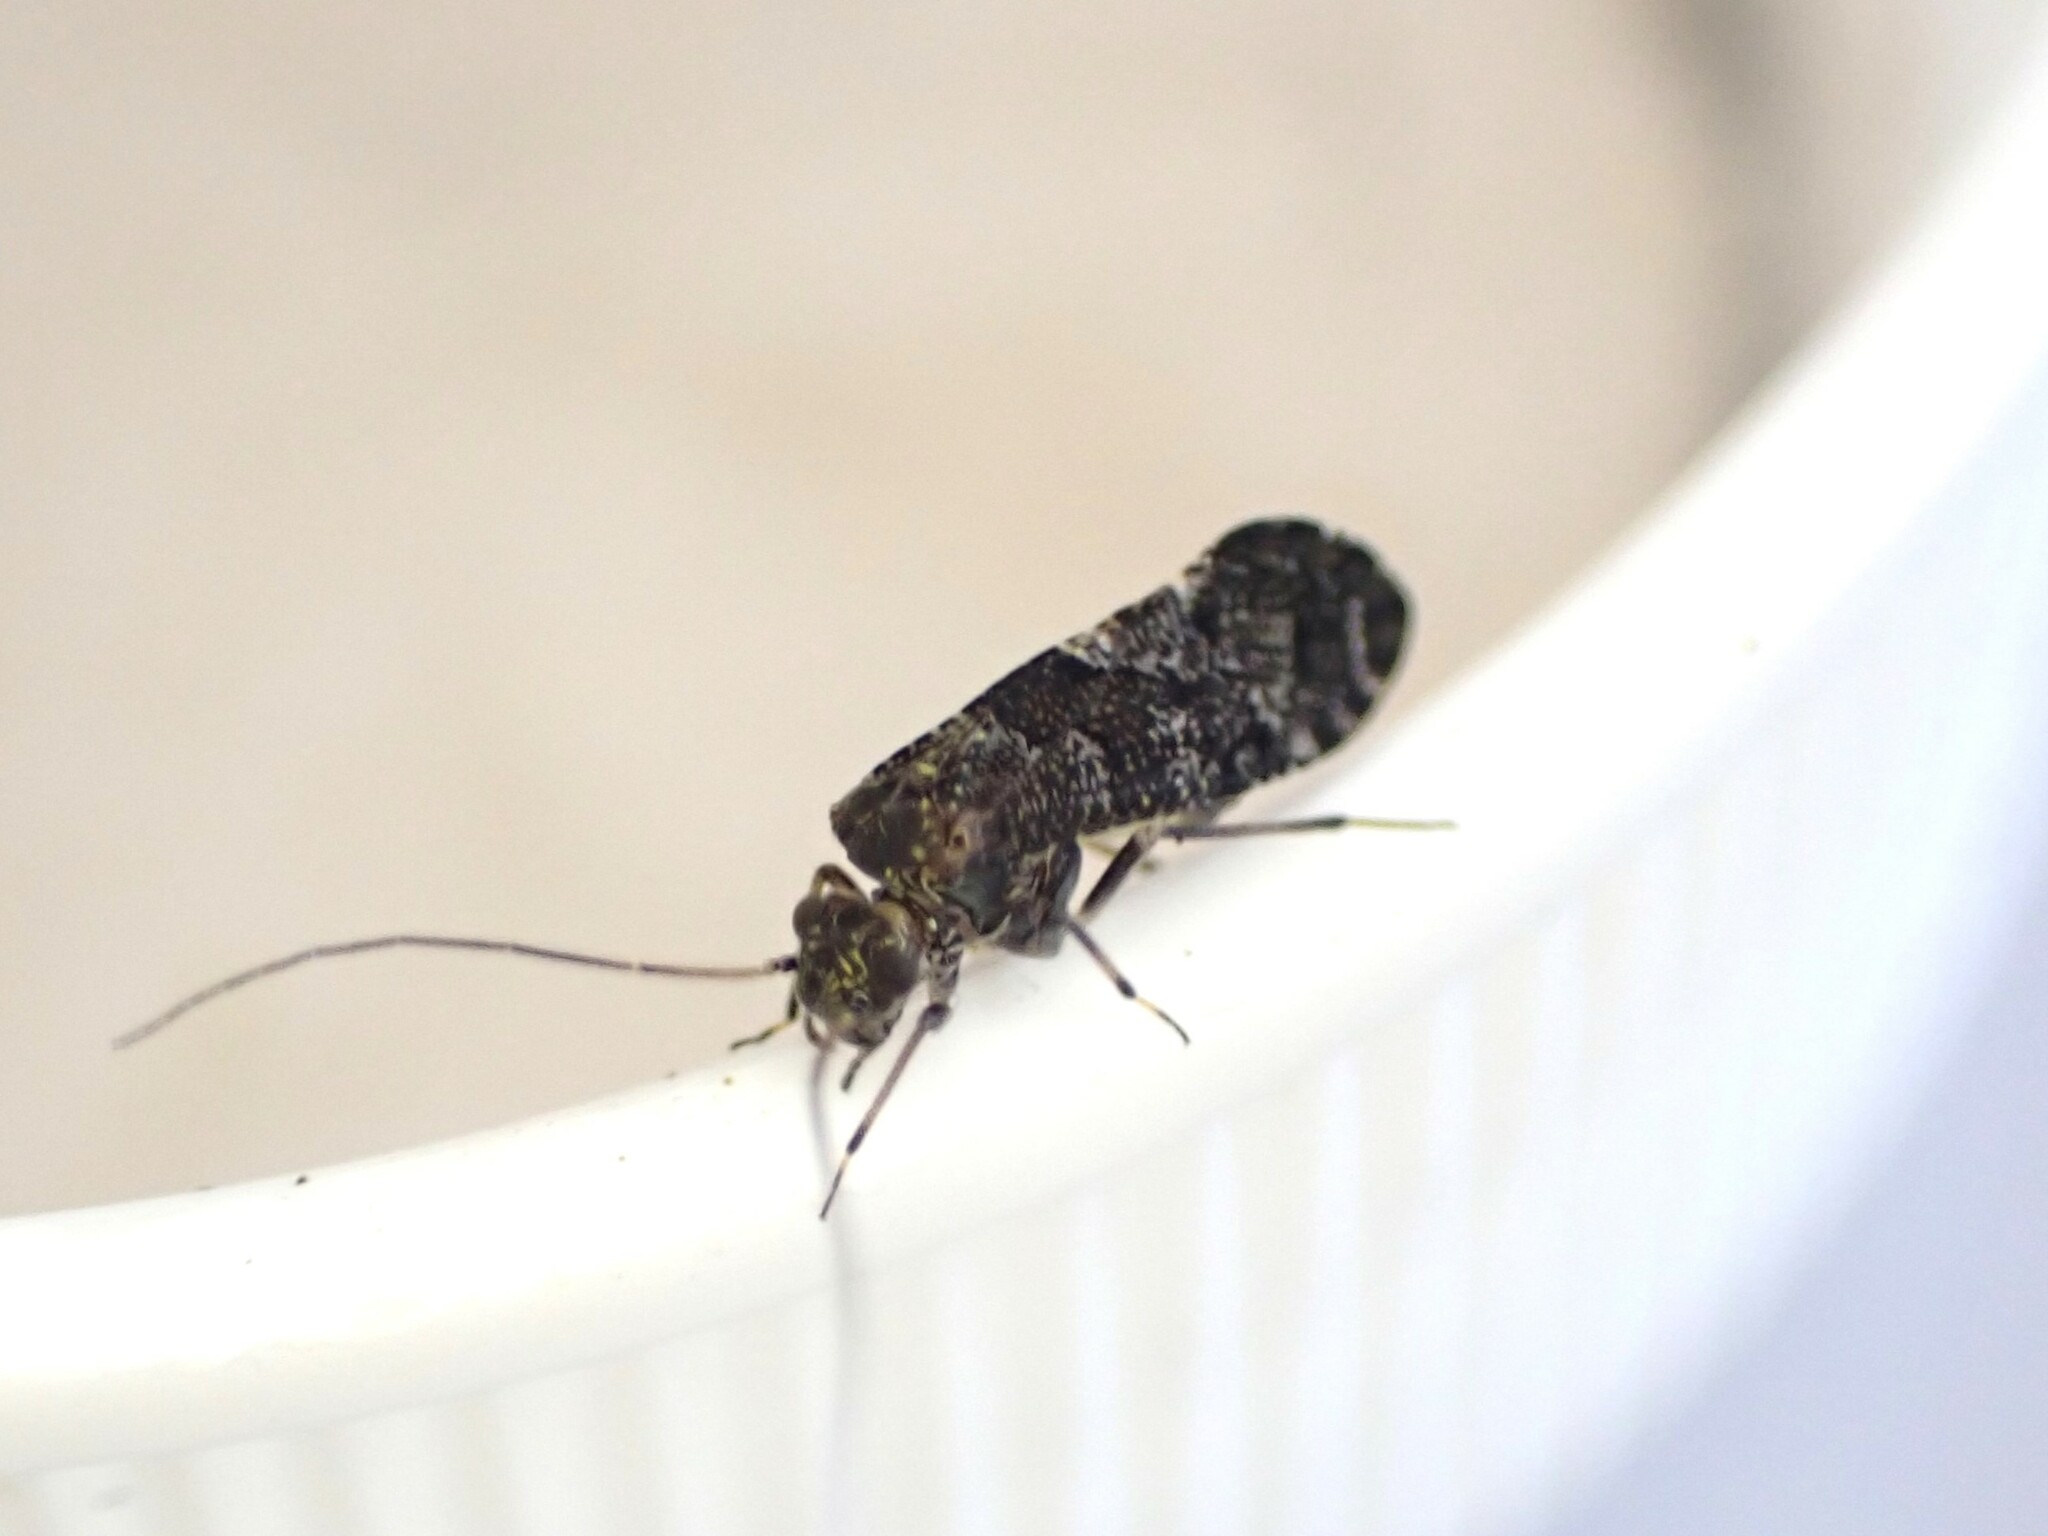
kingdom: Animalia
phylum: Arthropoda
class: Insecta
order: Psocodea
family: Myopsocidae
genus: Nimbopsocus
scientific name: Nimbopsocus australis
